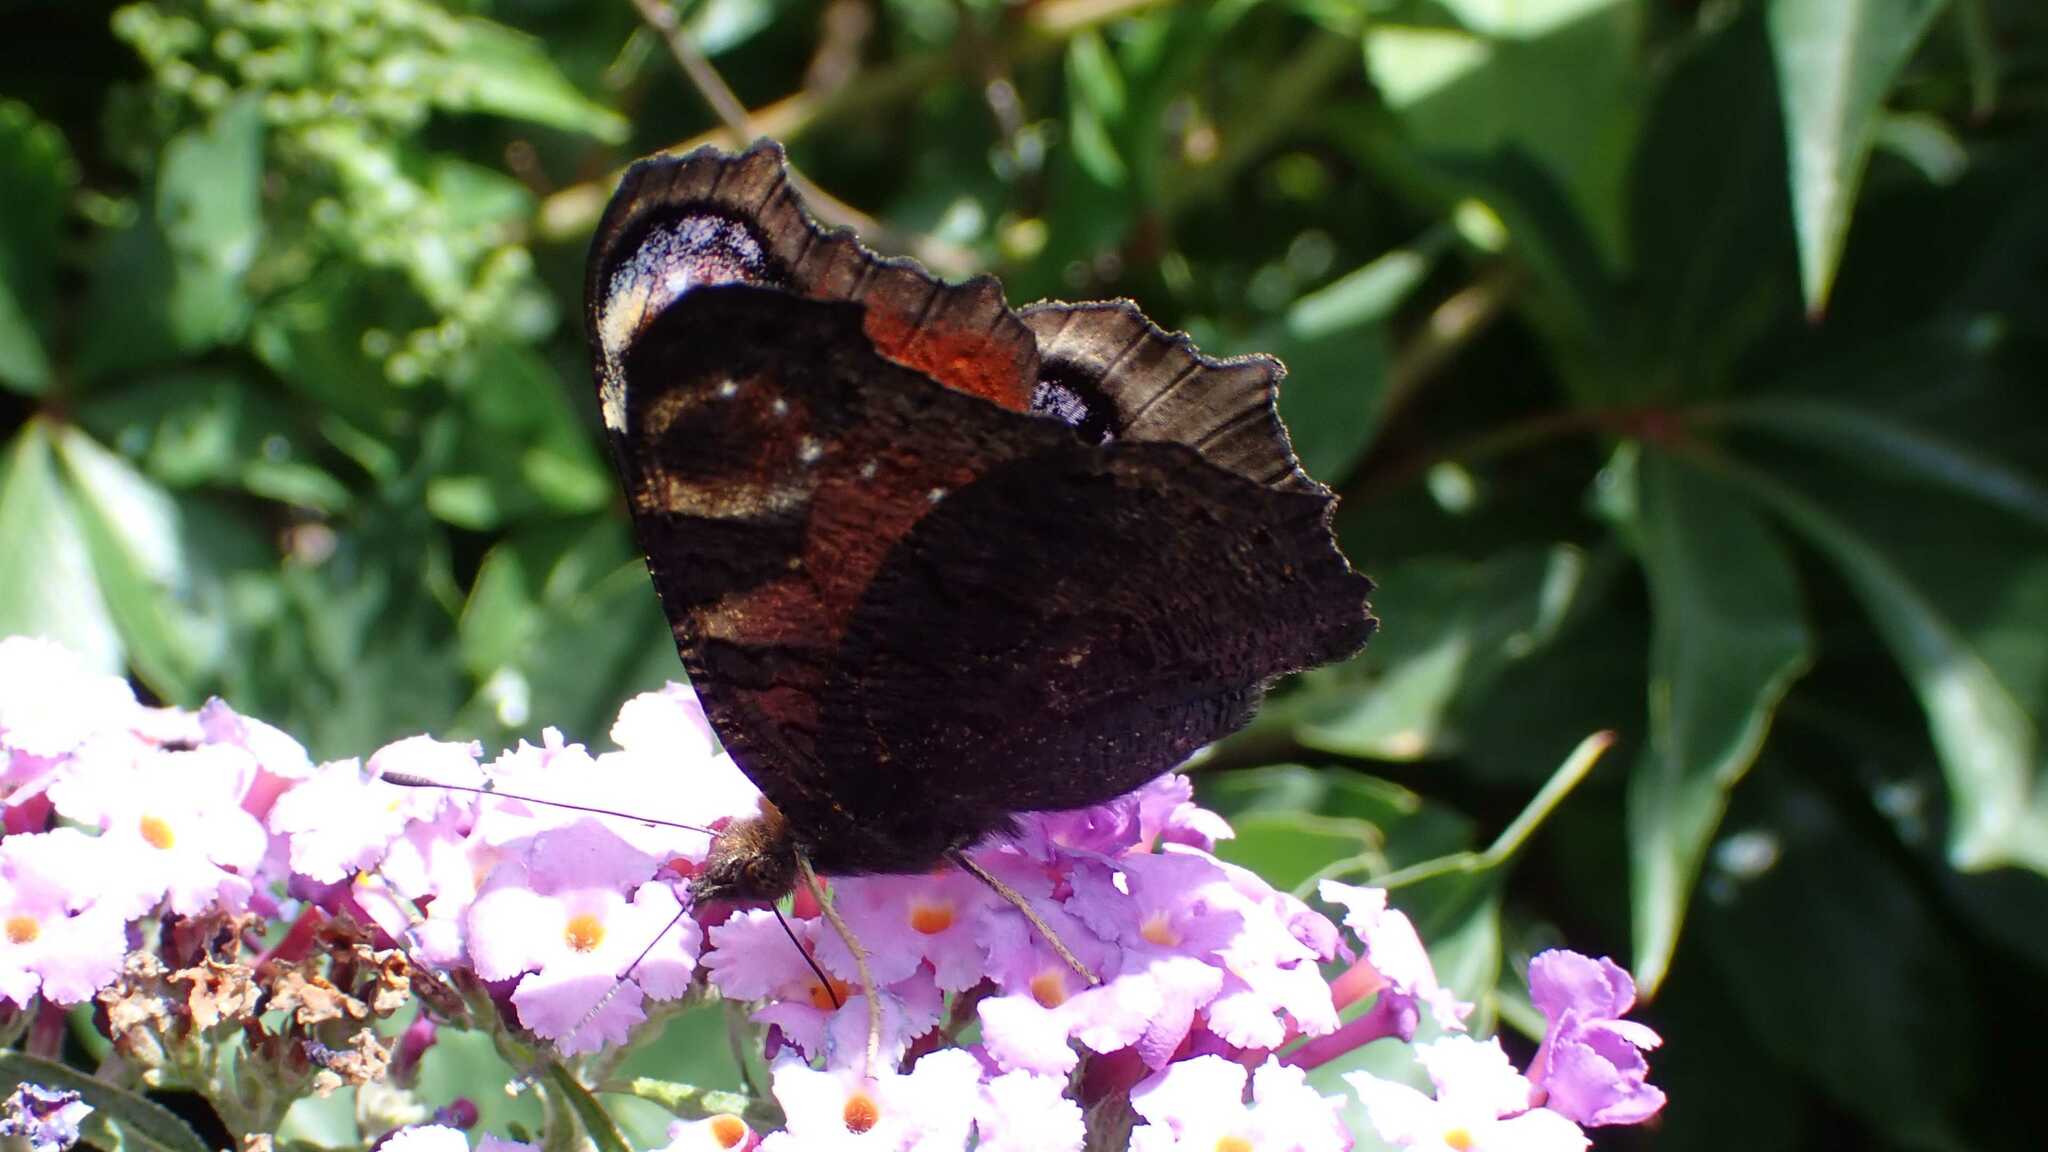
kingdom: Animalia
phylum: Arthropoda
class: Insecta
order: Lepidoptera
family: Nymphalidae
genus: Aglais
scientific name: Aglais io
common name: Peacock
